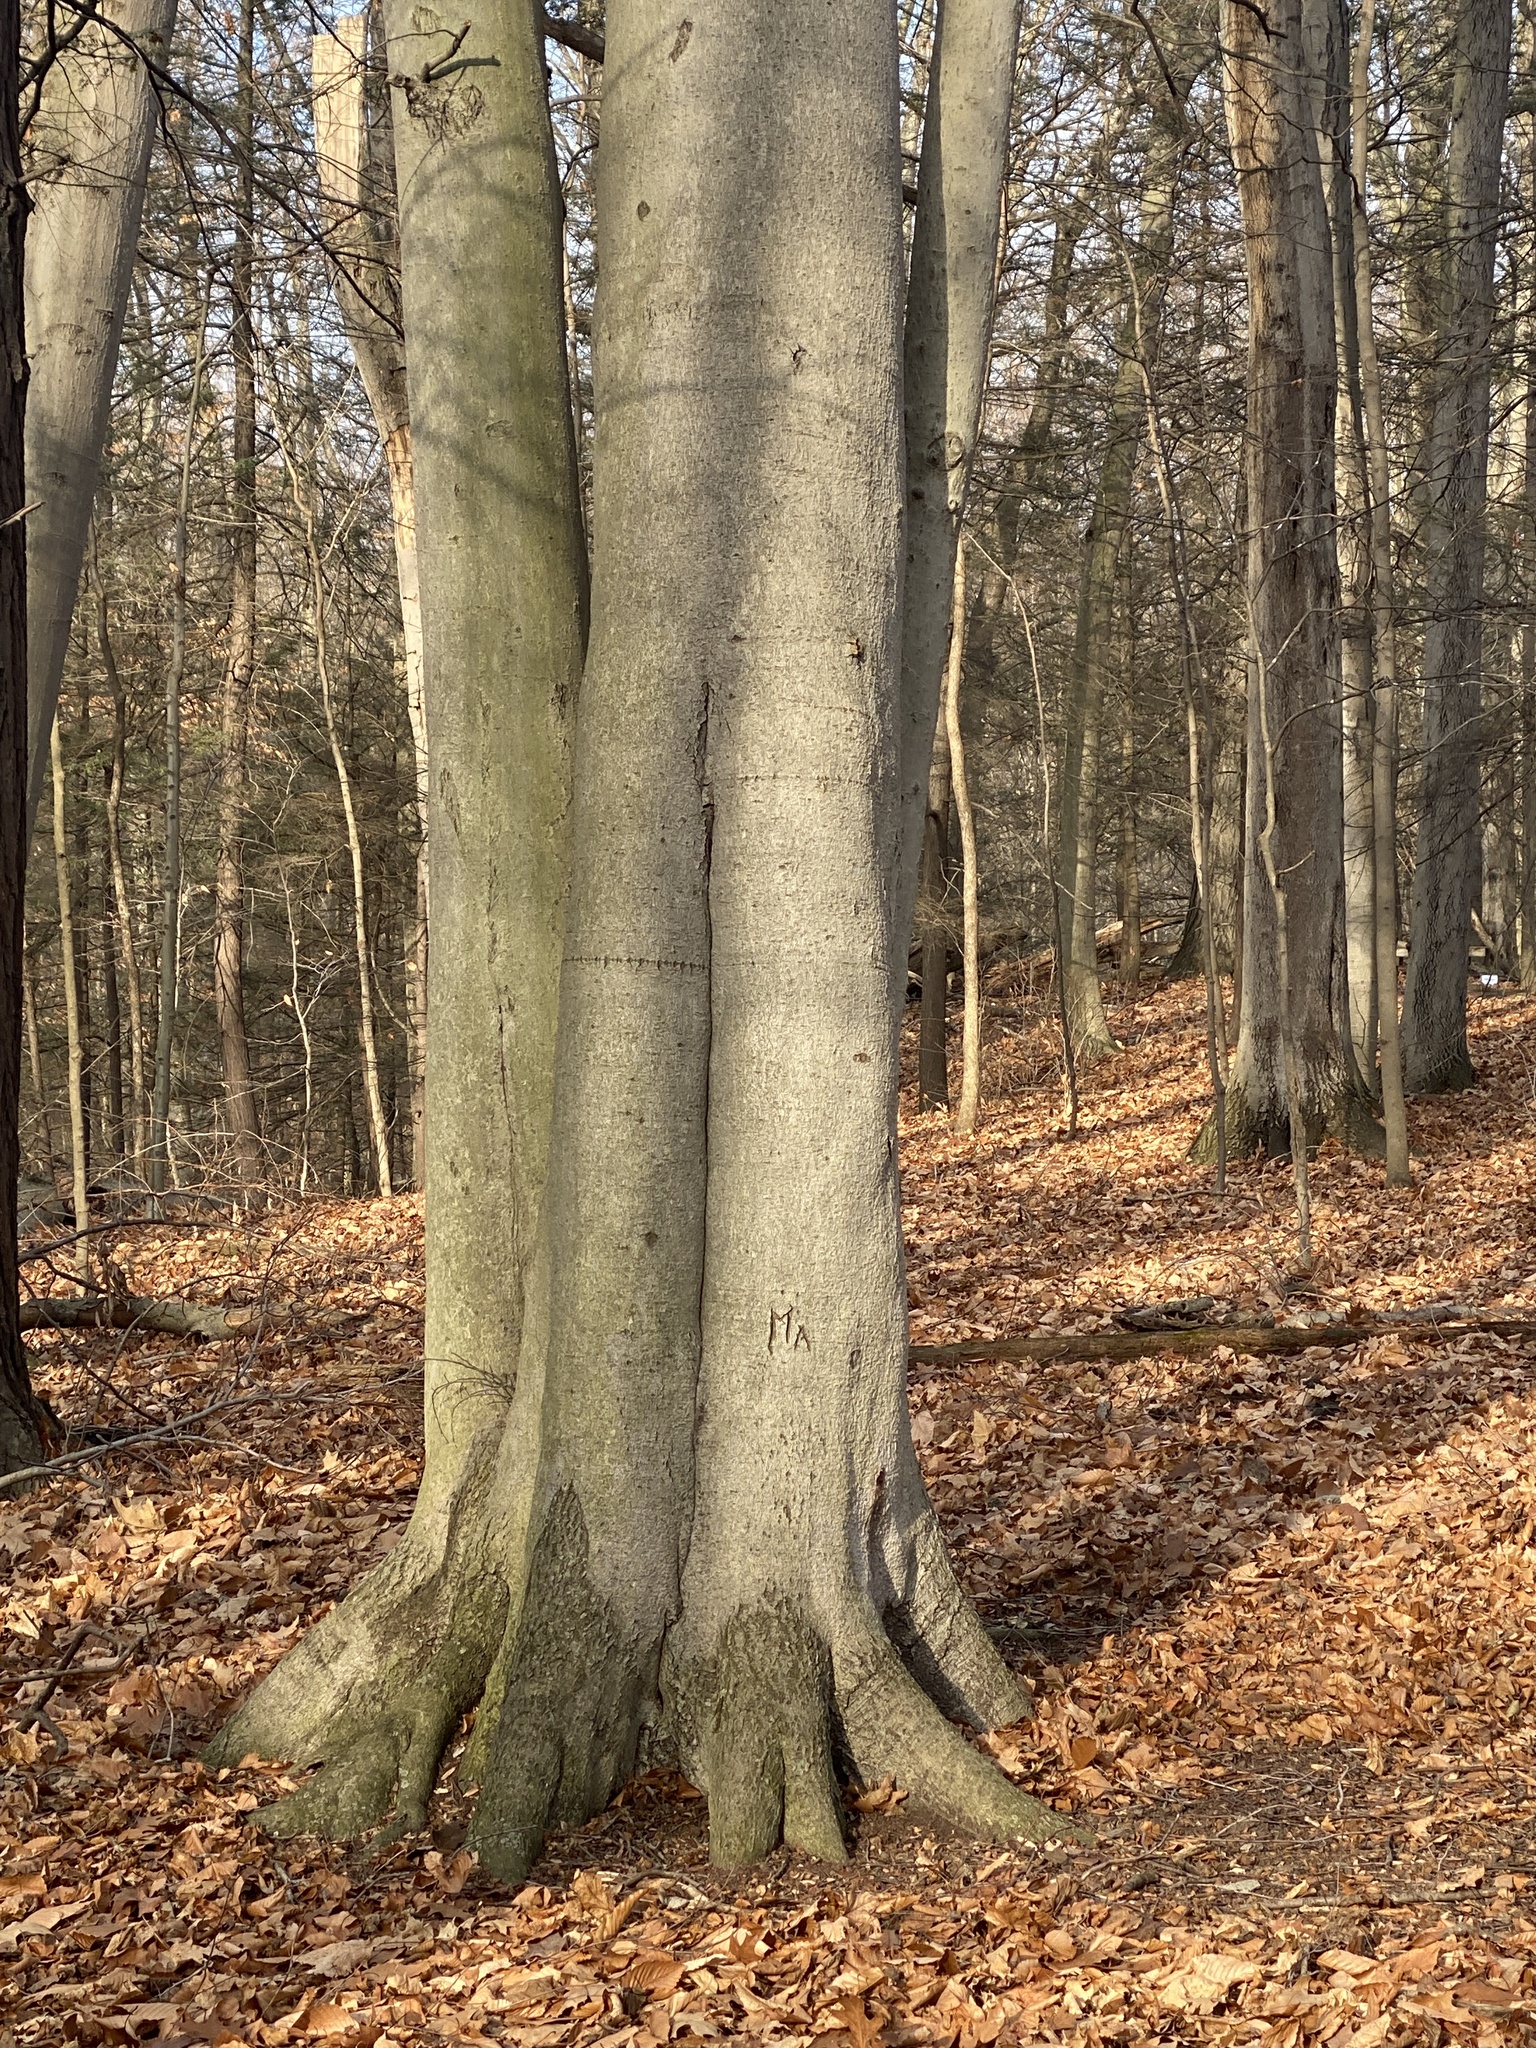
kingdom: Plantae
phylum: Tracheophyta
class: Magnoliopsida
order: Fagales
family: Fagaceae
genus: Fagus
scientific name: Fagus grandifolia
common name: American beech
